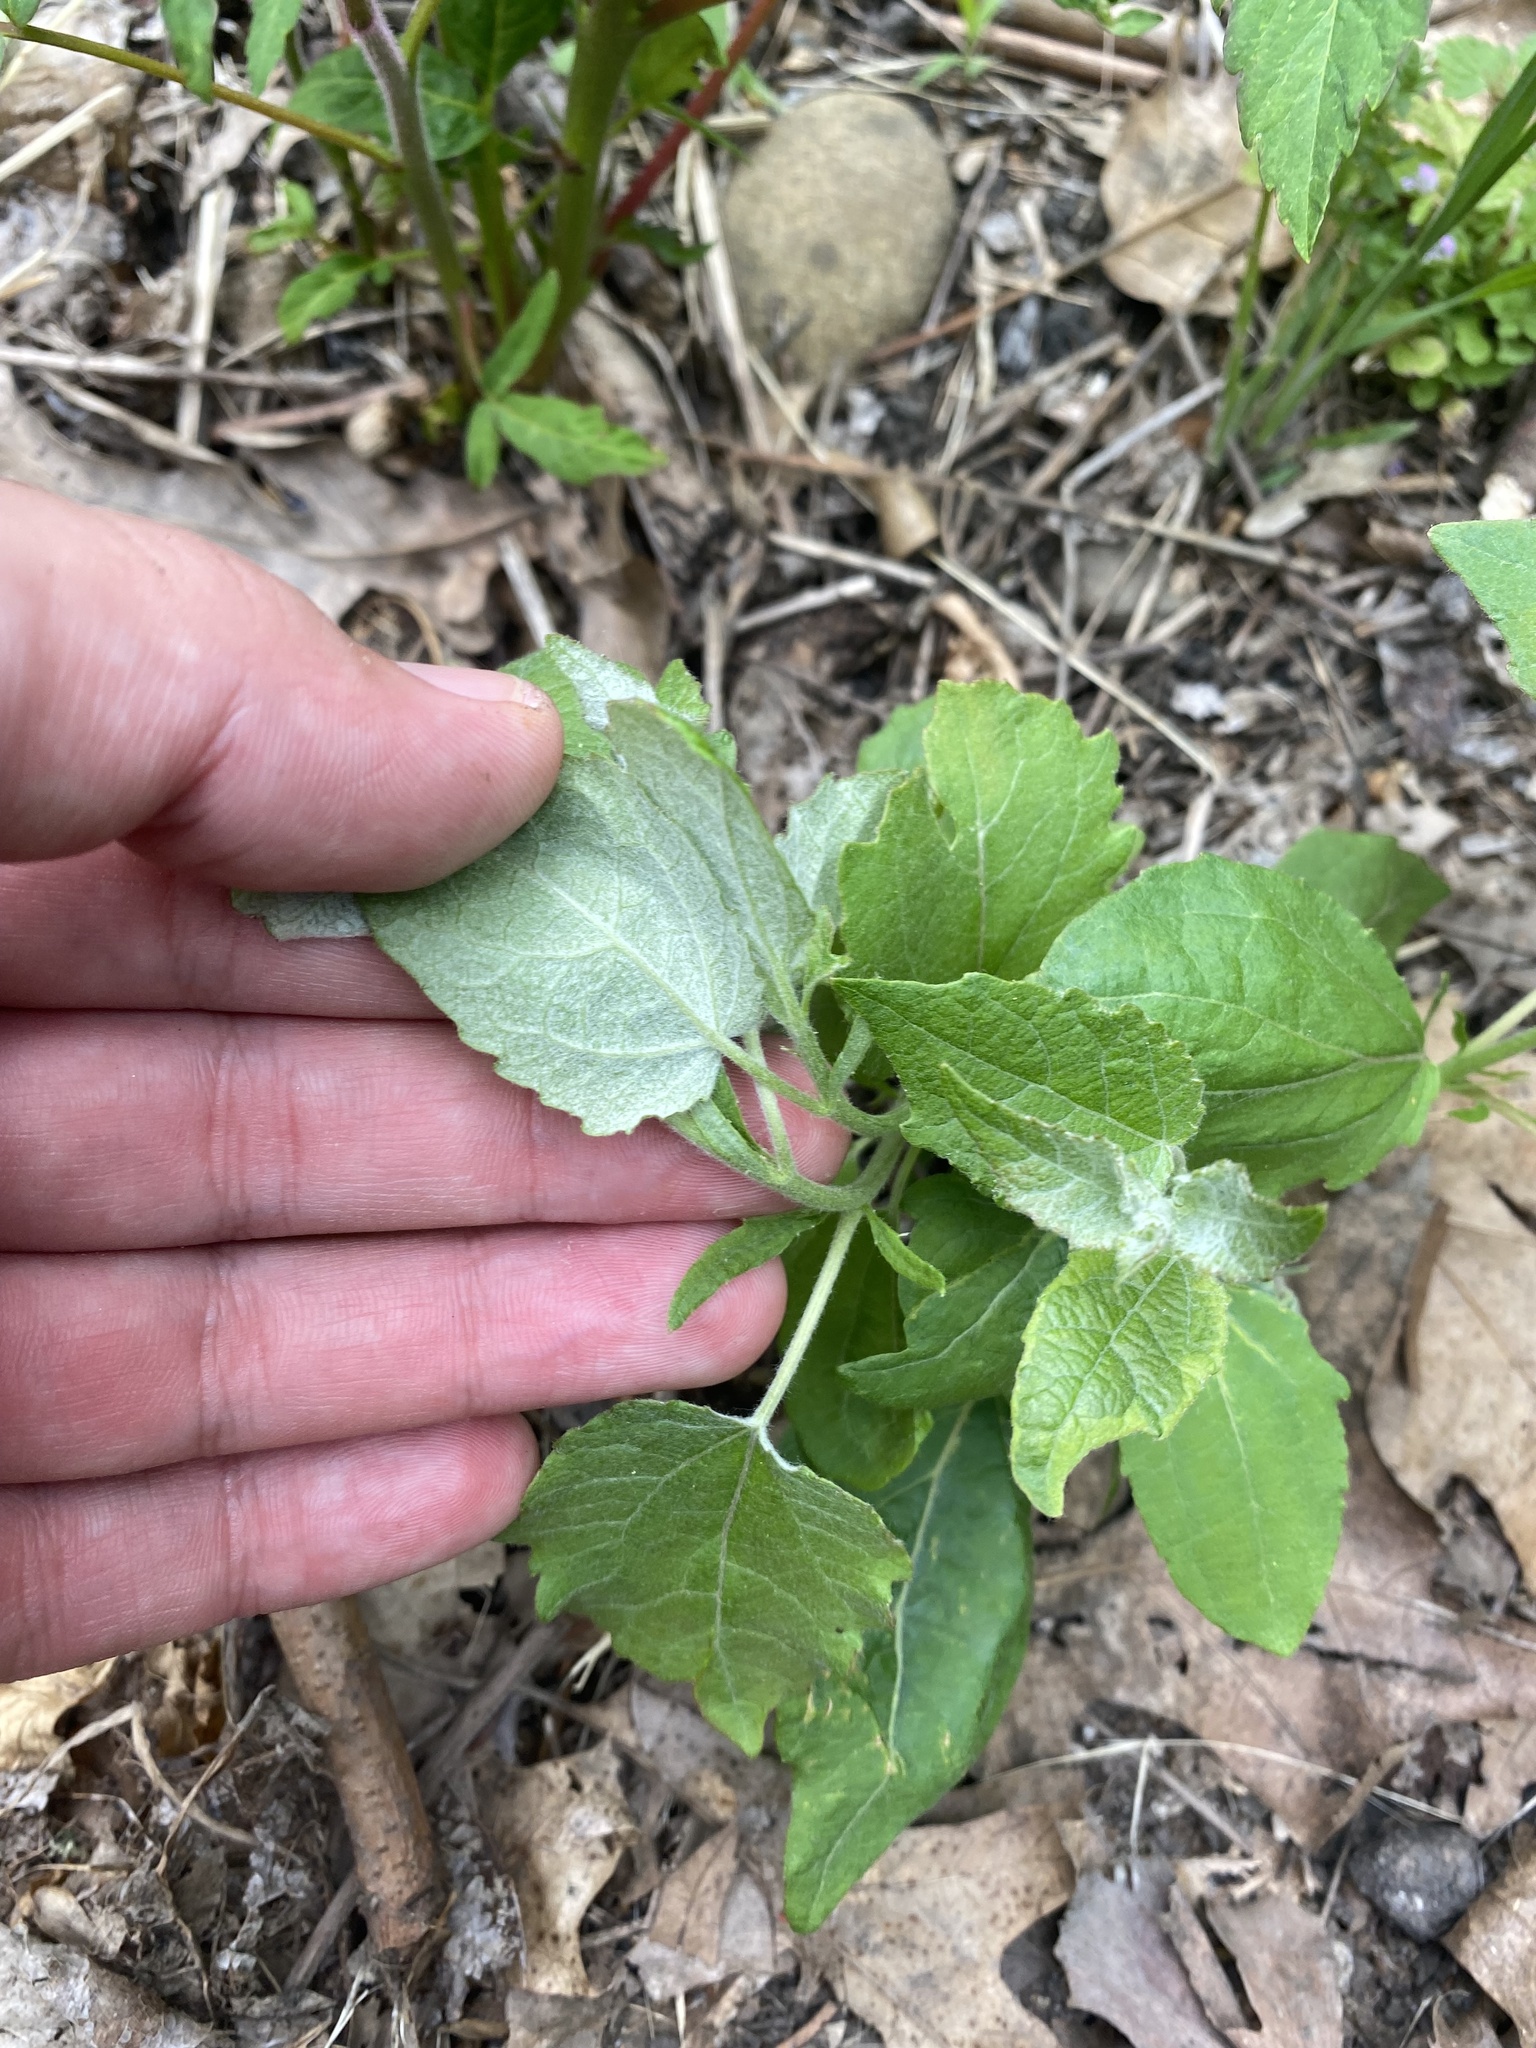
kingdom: Plantae
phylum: Tracheophyta
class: Magnoliopsida
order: Malpighiales
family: Salicaceae
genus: Populus
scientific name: Populus alba
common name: White poplar
